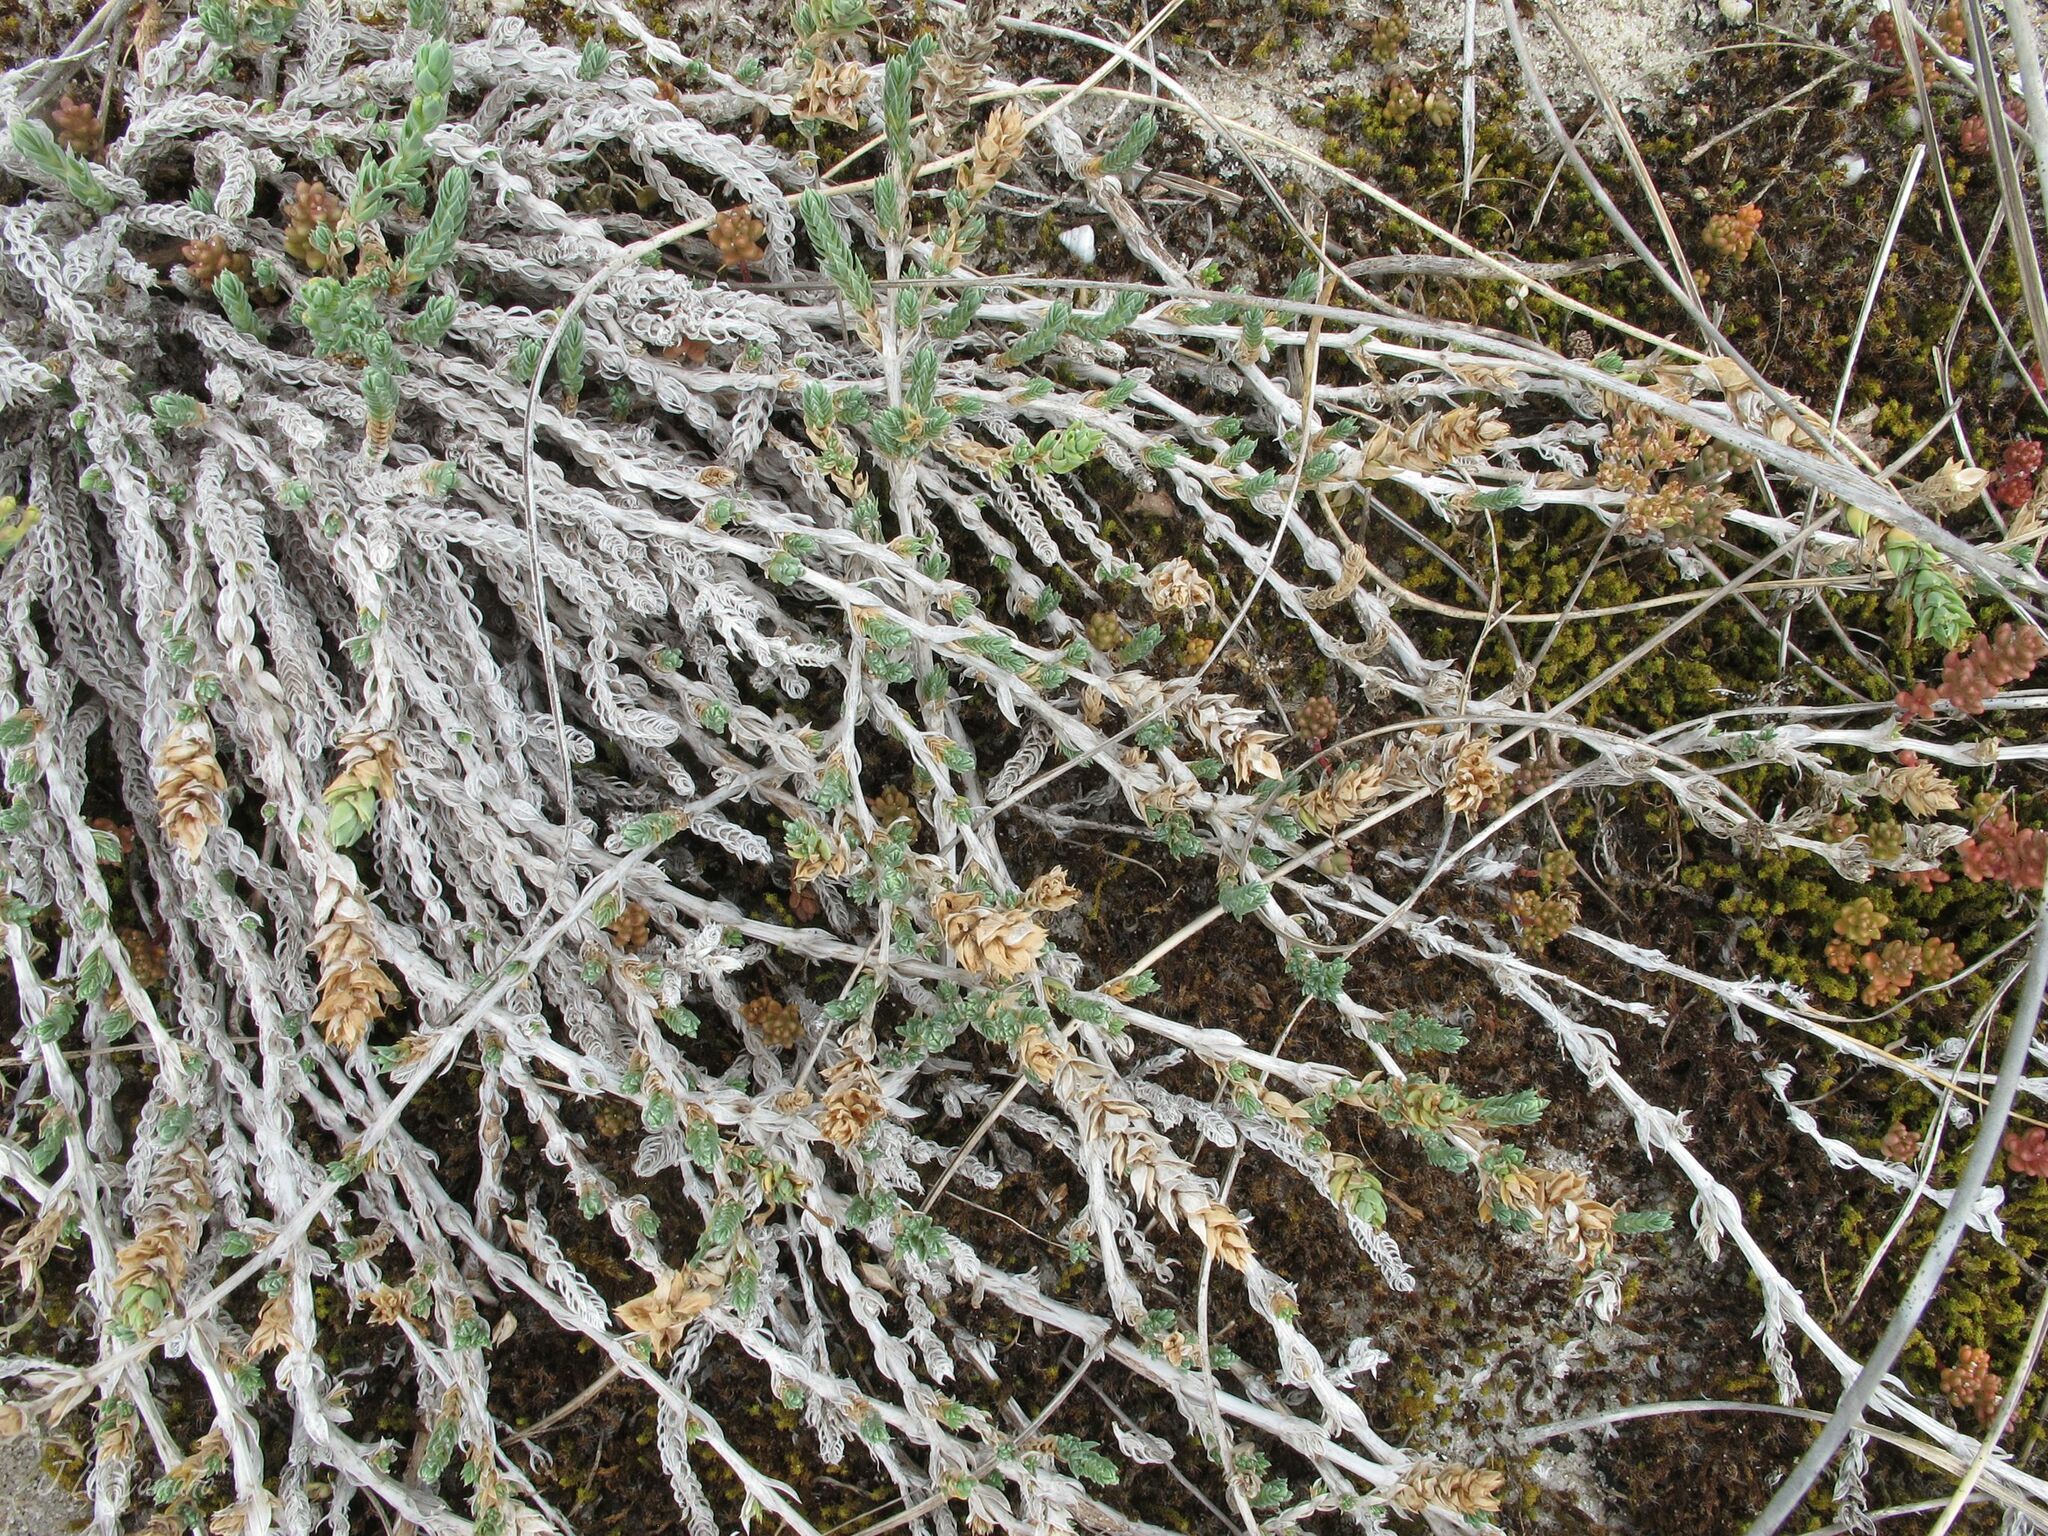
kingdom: Plantae
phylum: Tracheophyta
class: Magnoliopsida
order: Gentianales
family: Rubiaceae
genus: Crucianella
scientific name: Crucianella maritima
